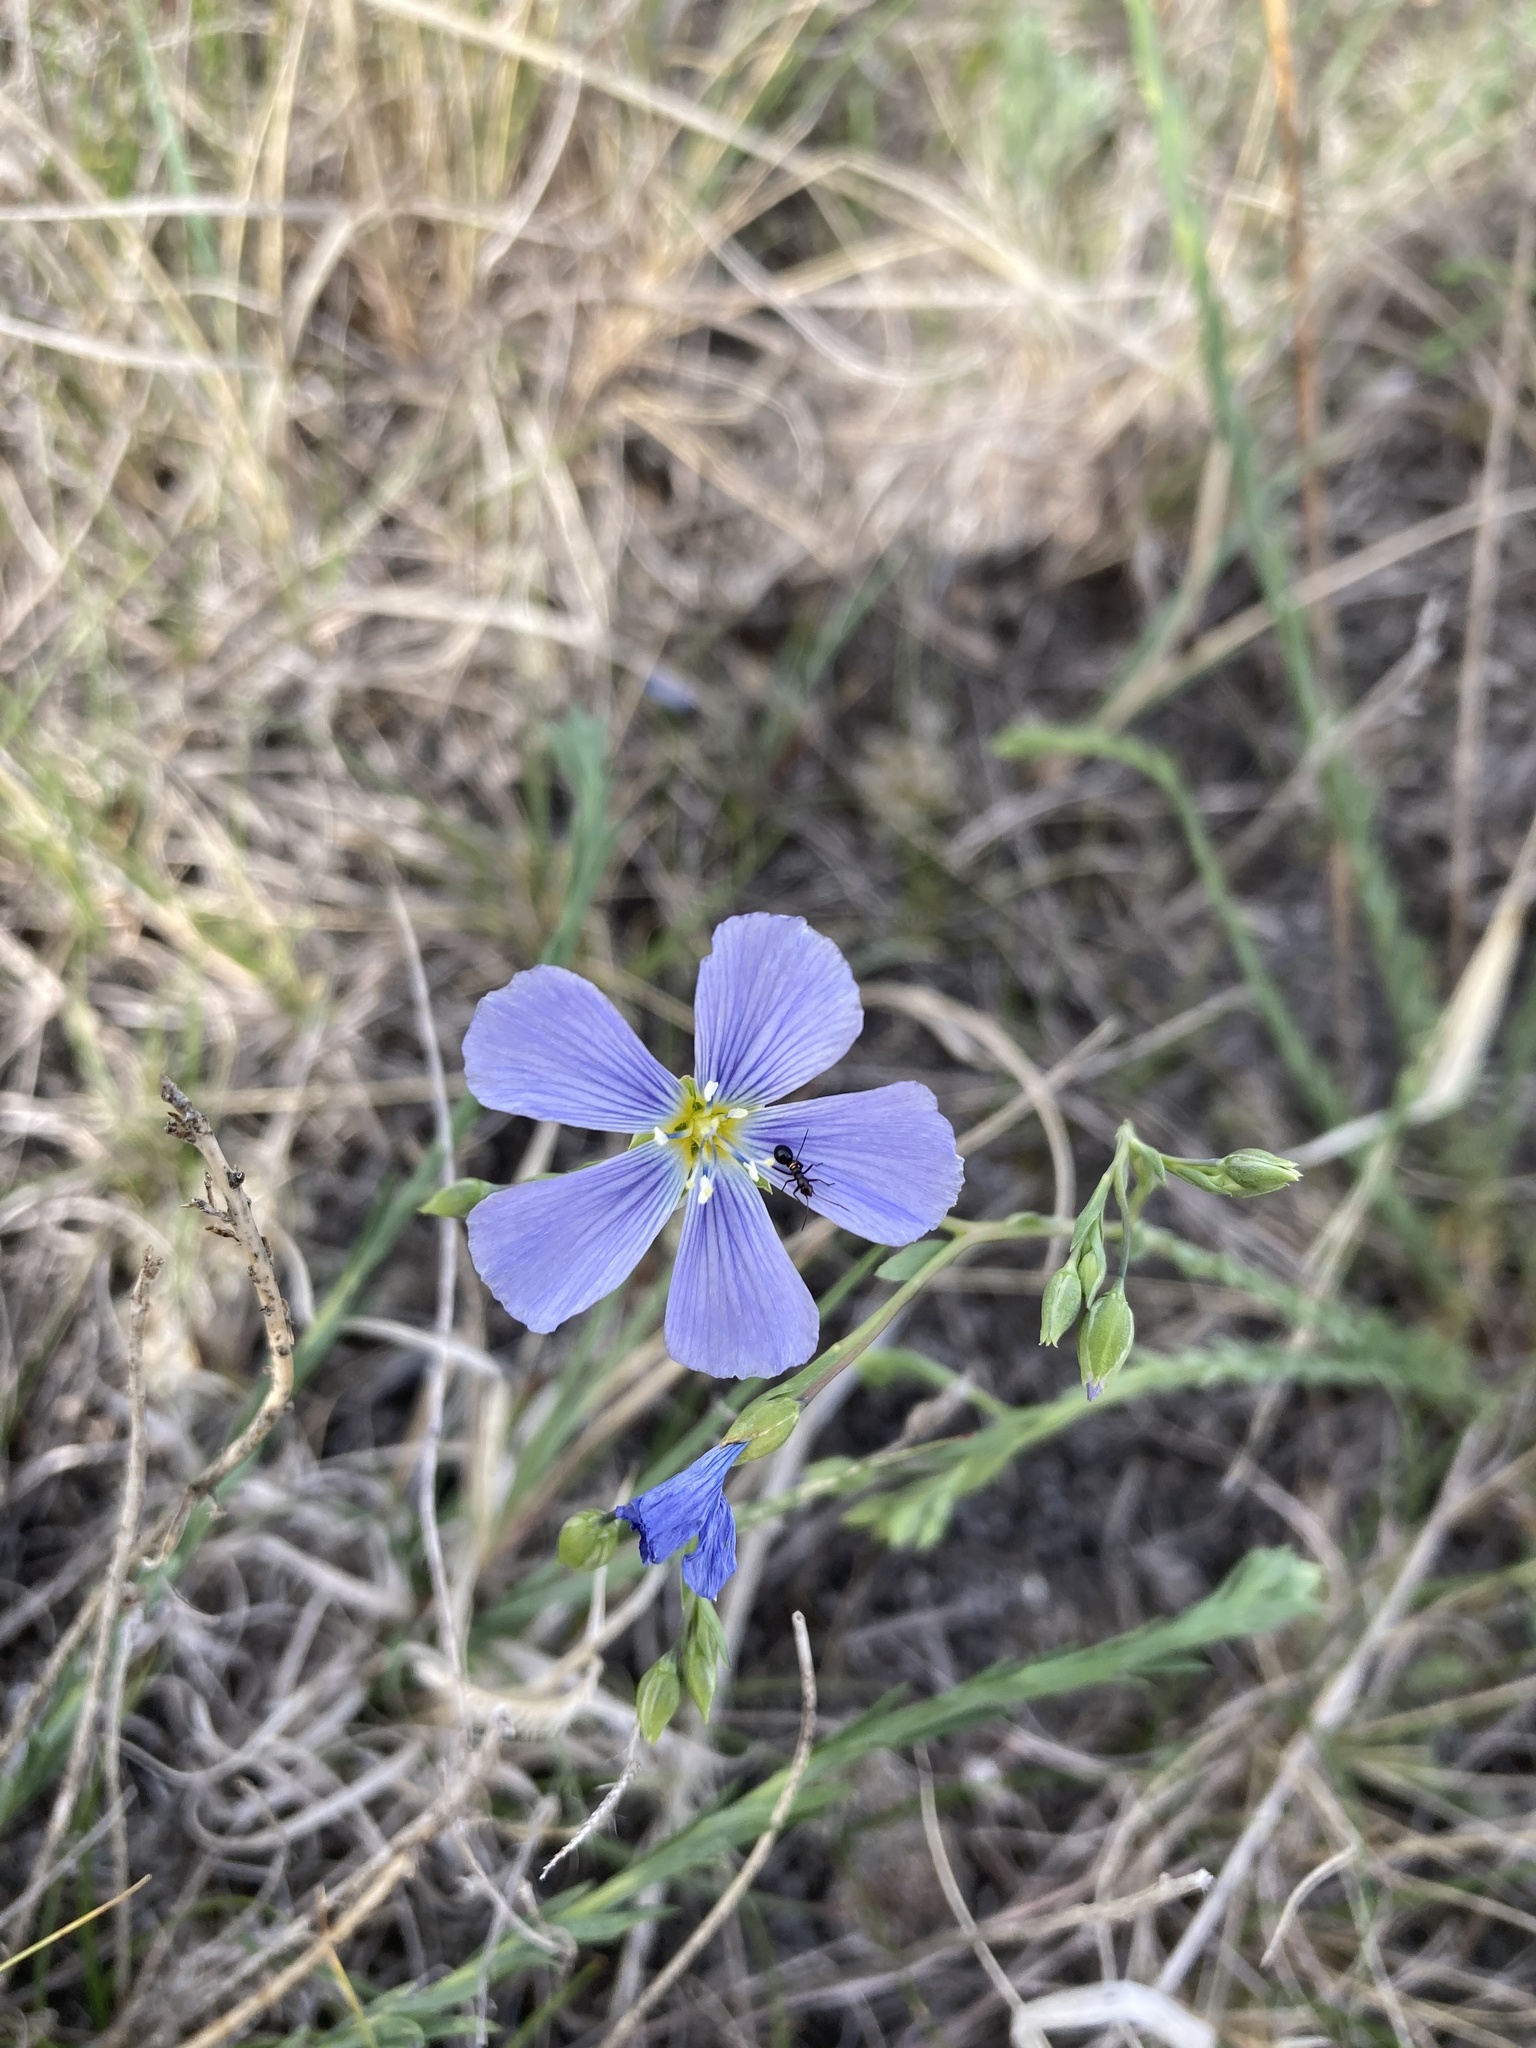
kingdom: Plantae
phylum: Tracheophyta
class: Magnoliopsida
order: Malpighiales
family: Linaceae
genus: Linum
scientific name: Linum lewisii
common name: Prairie flax
